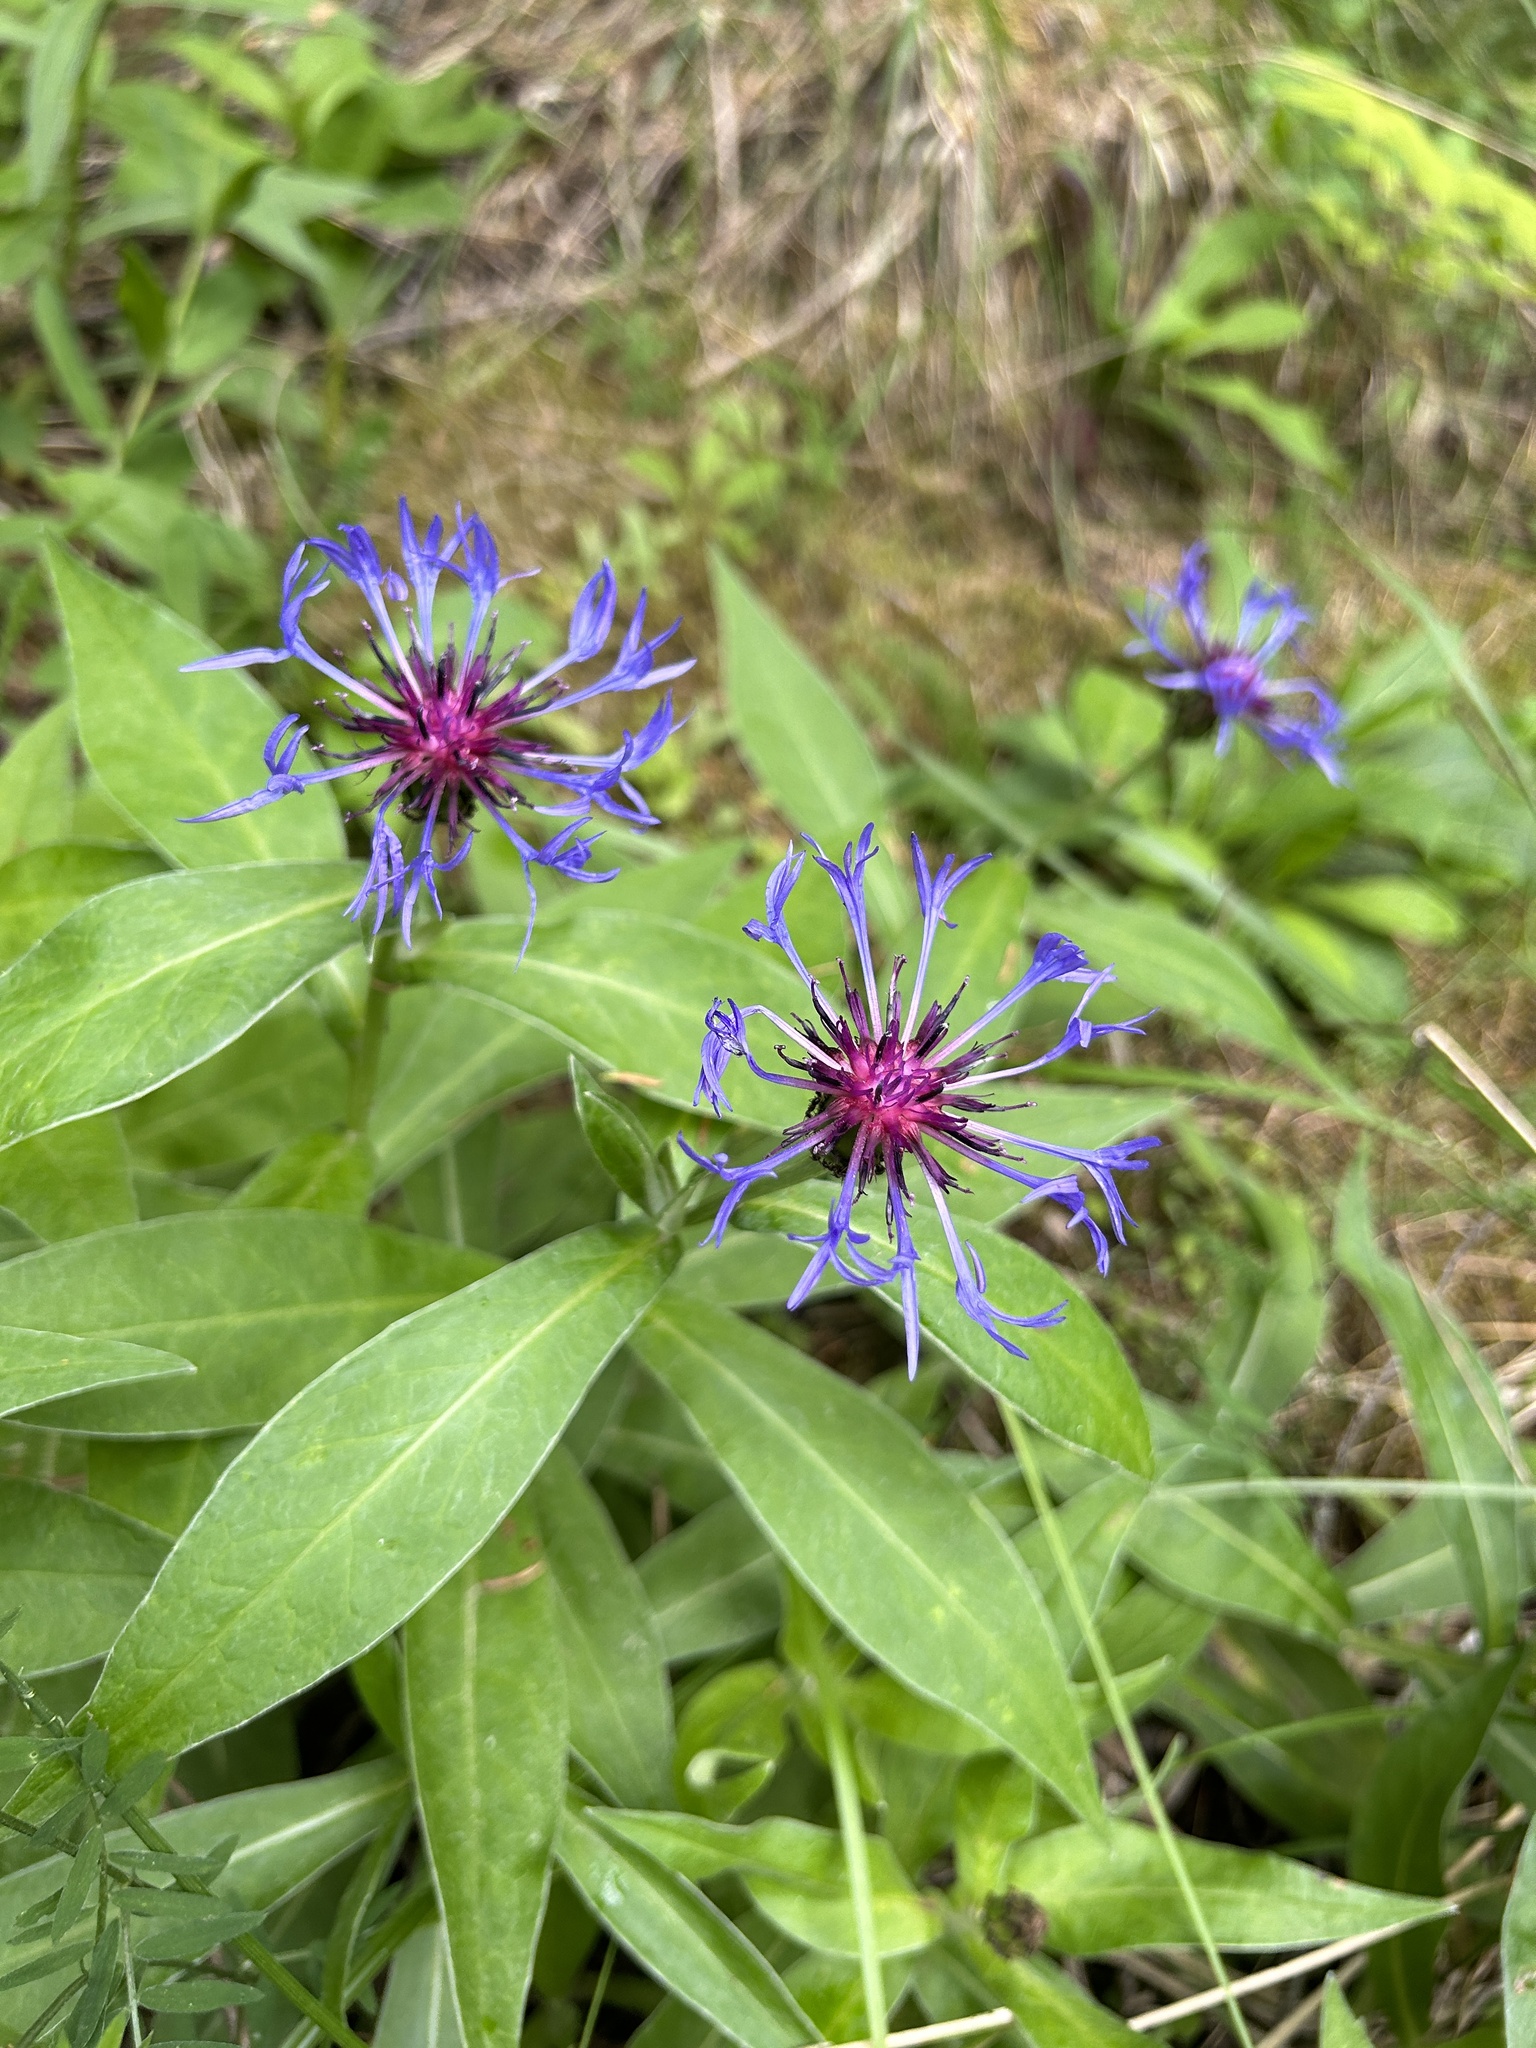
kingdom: Plantae
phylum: Tracheophyta
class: Magnoliopsida
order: Asterales
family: Asteraceae
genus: Centaurea
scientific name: Centaurea montana
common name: Perennial cornflower
